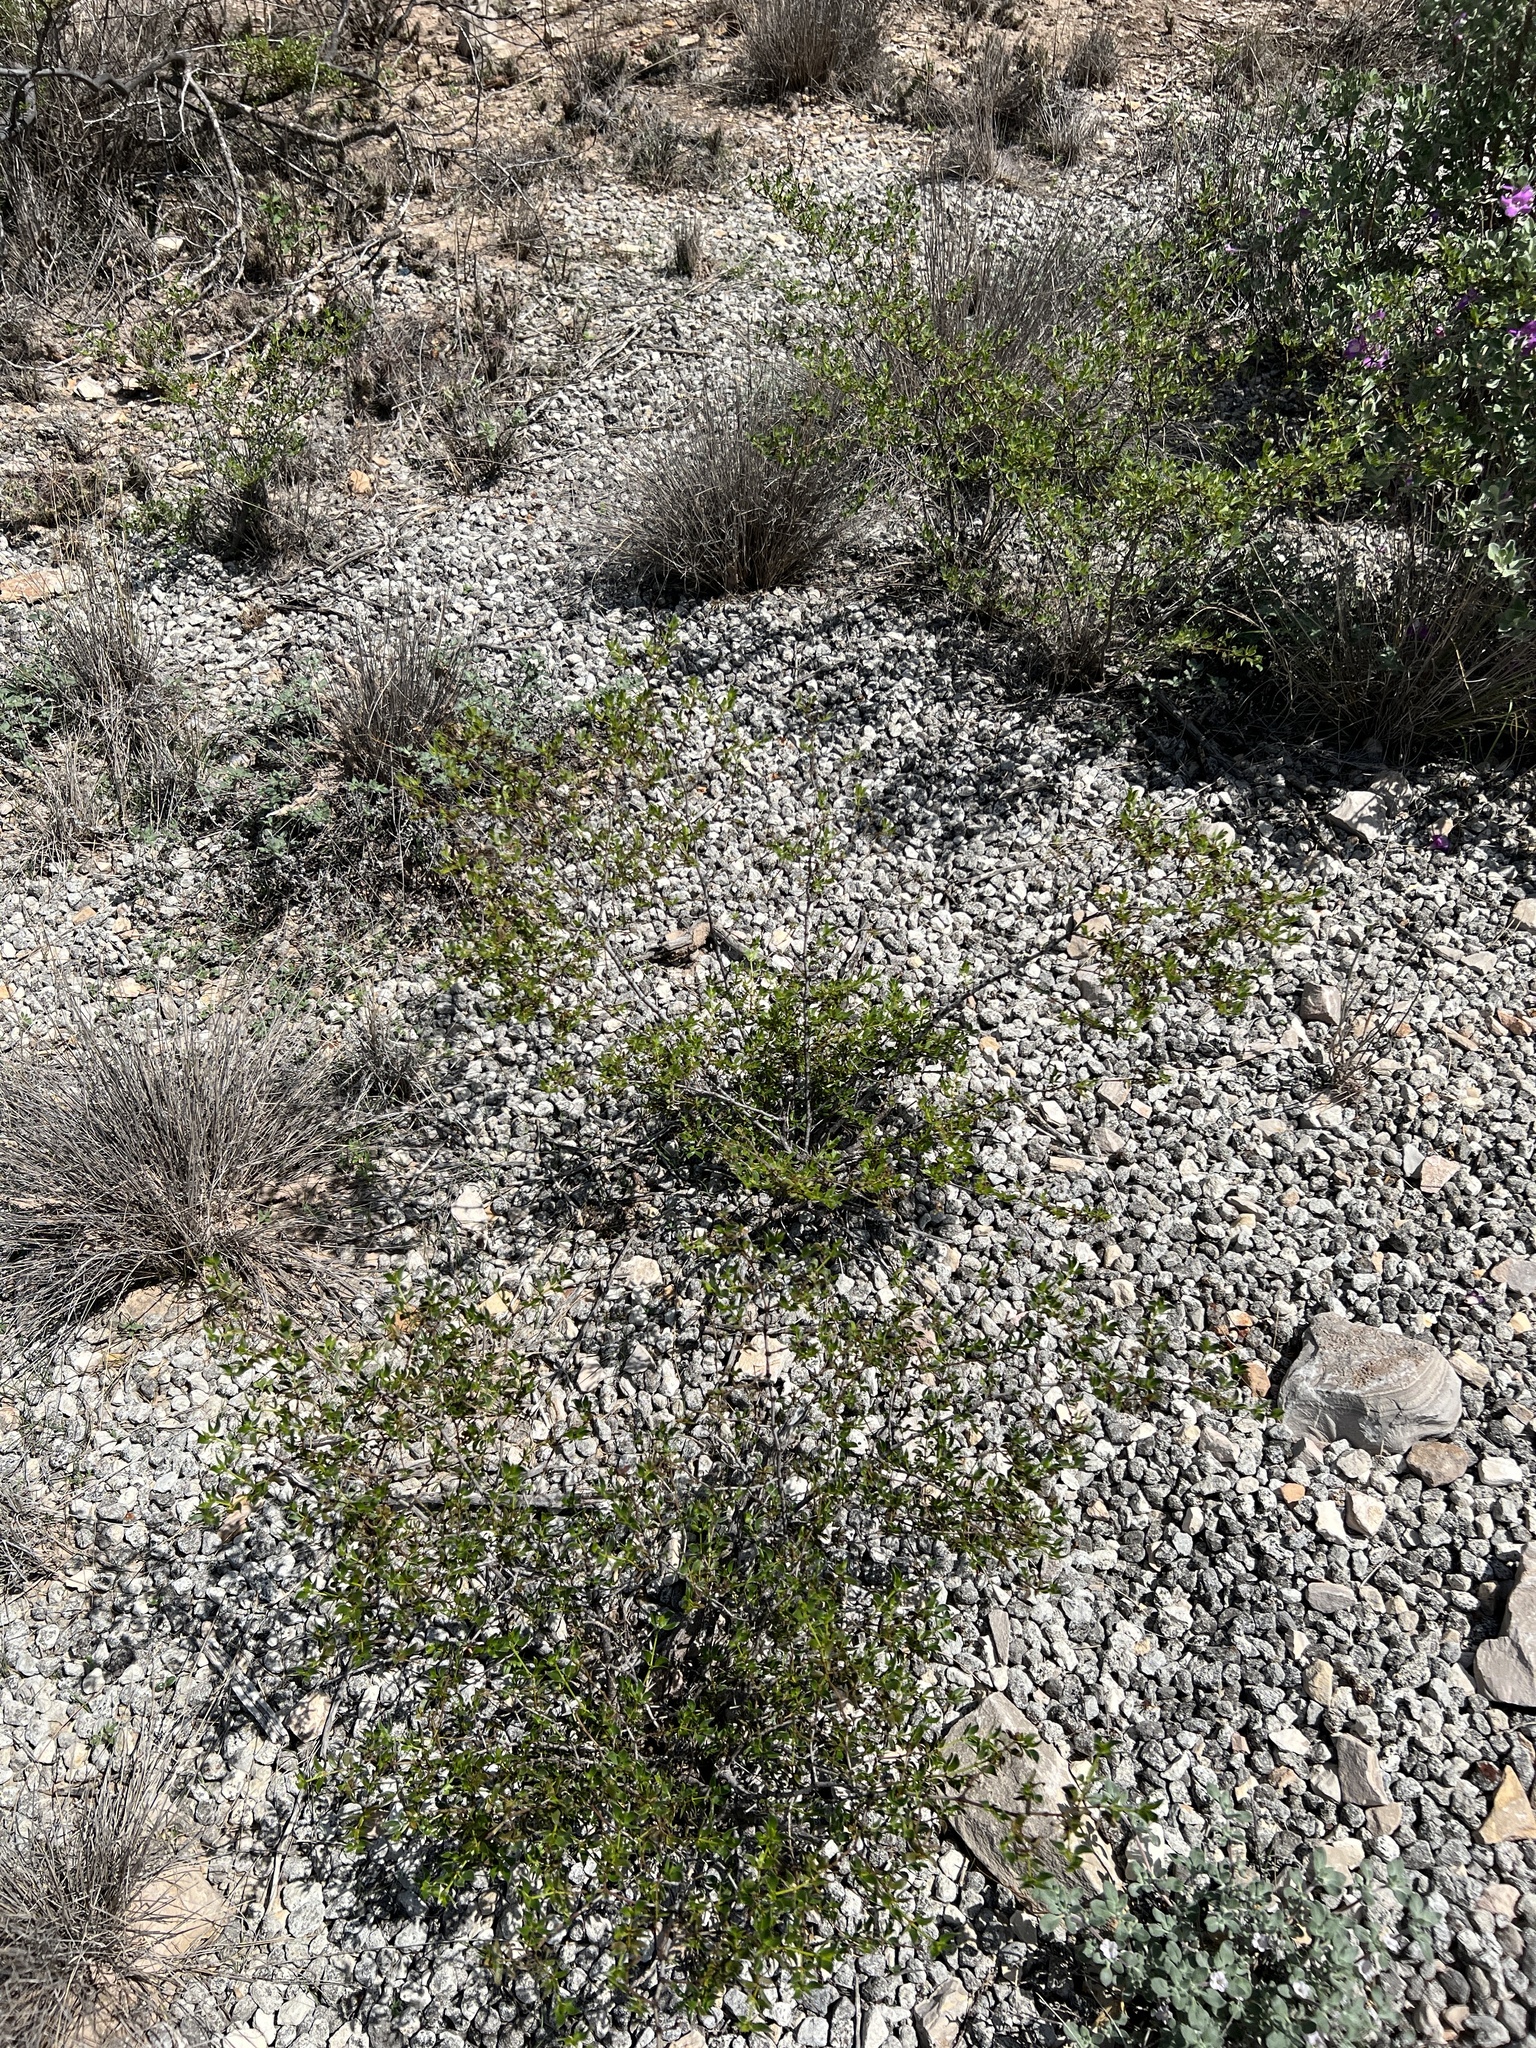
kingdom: Plantae
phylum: Tracheophyta
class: Magnoliopsida
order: Zygophyllales
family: Zygophyllaceae
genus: Larrea
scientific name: Larrea tridentata
